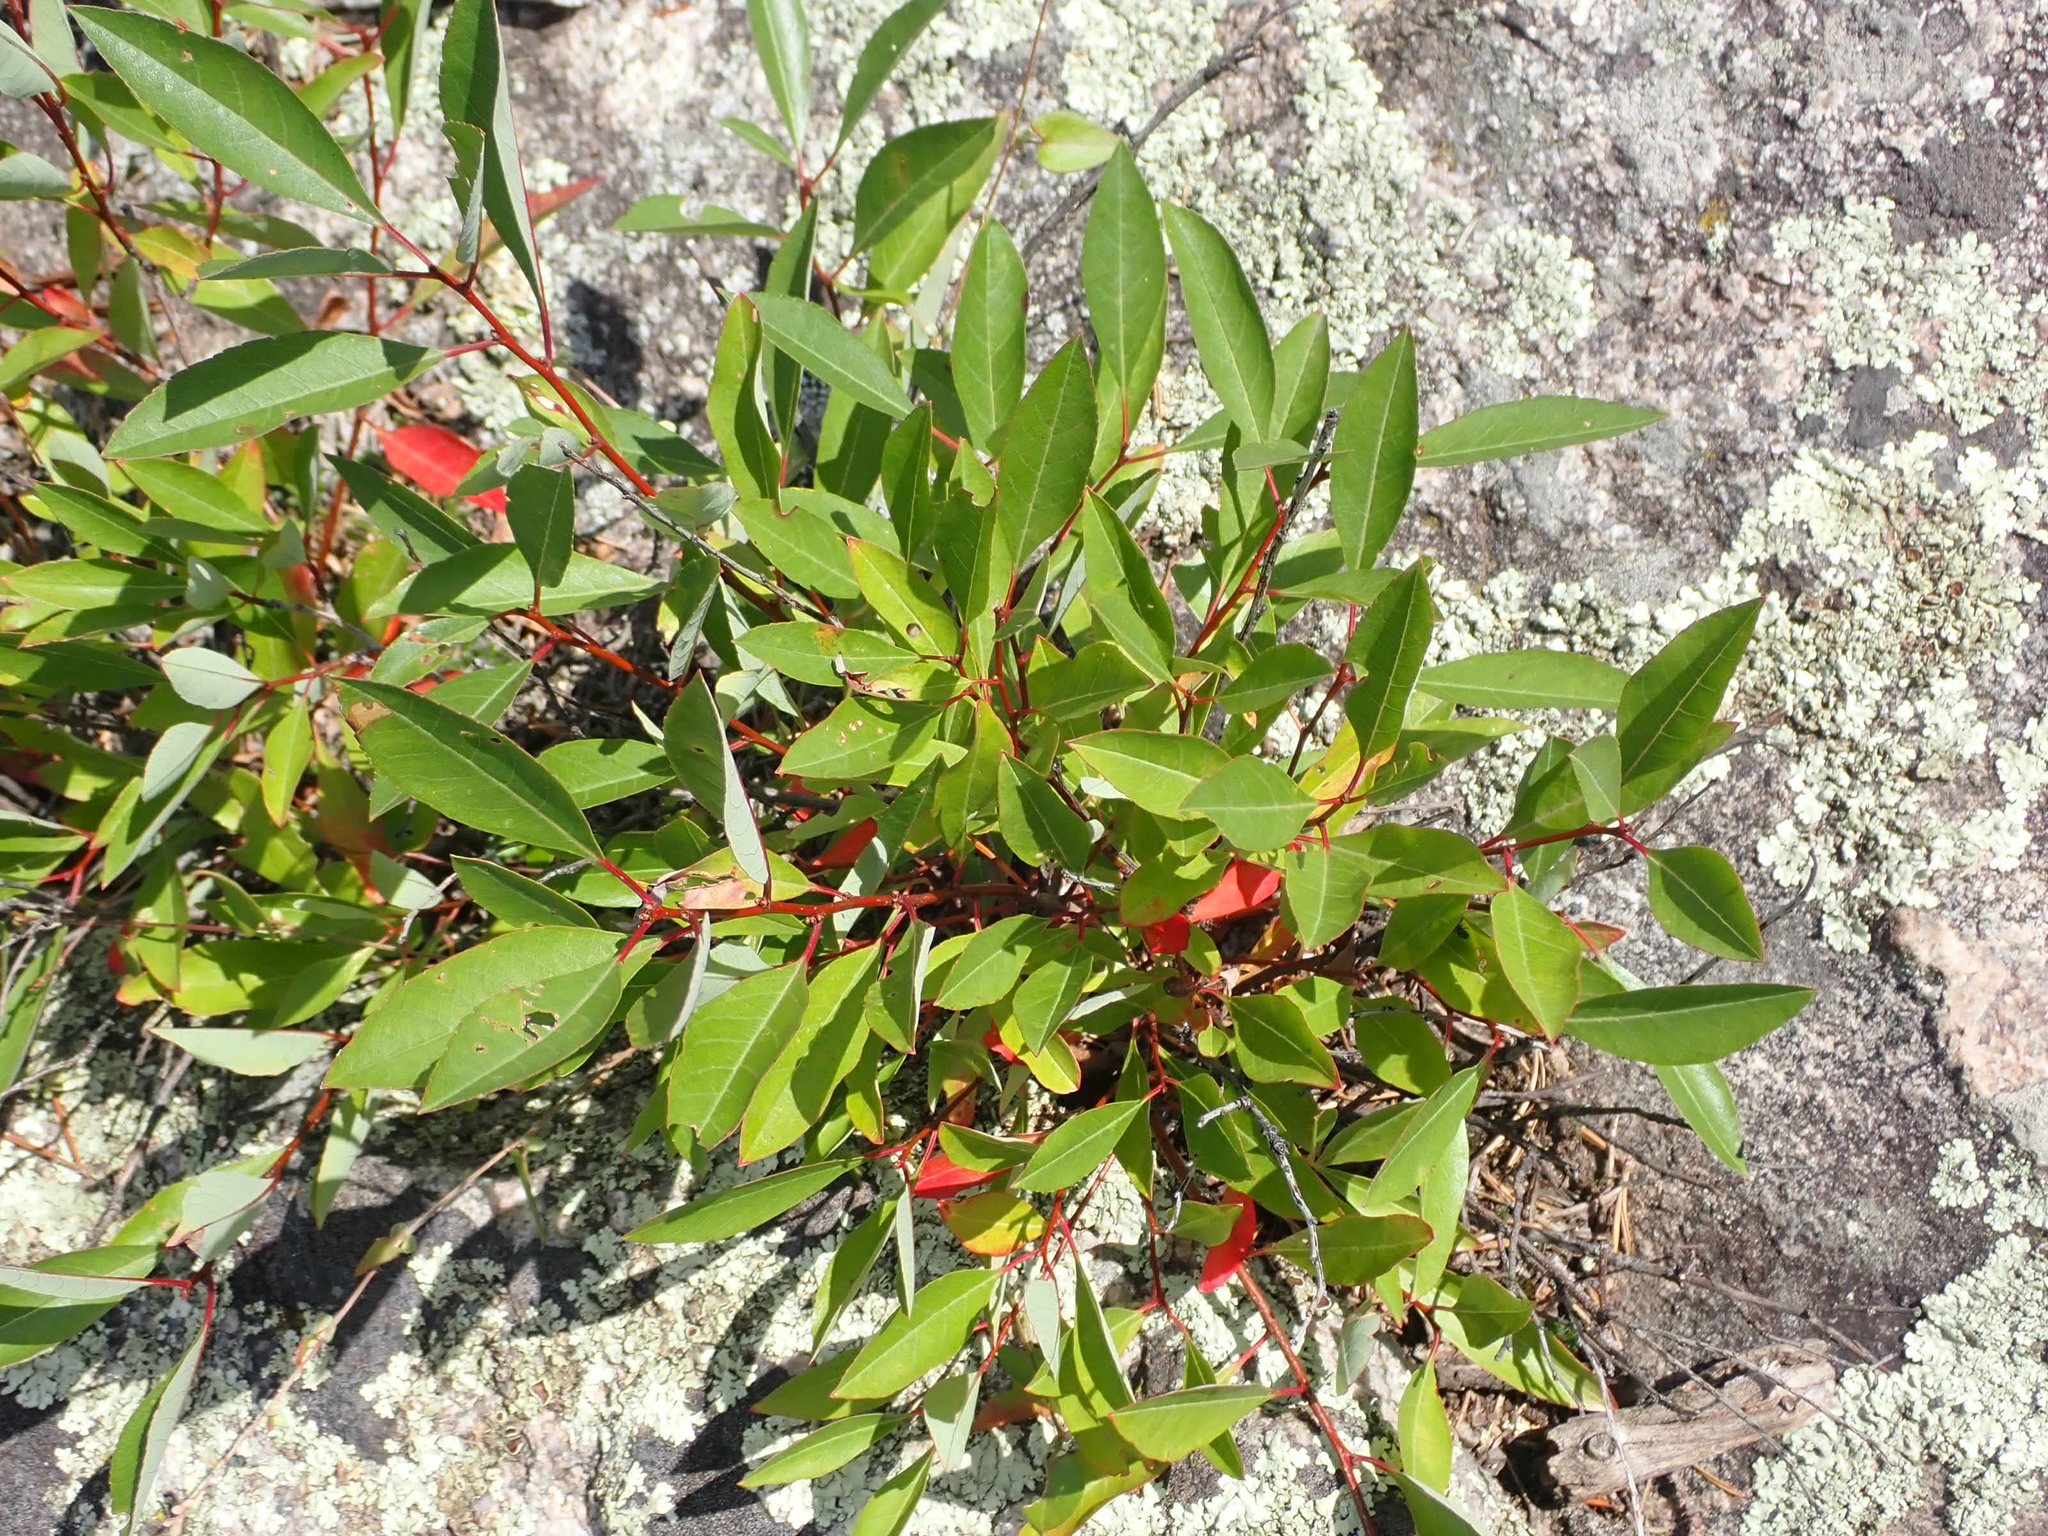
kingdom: Plantae
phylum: Tracheophyta
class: Magnoliopsida
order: Rosales
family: Rosaceae
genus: Prunus
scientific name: Prunus pumila
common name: Dwarf cherry
